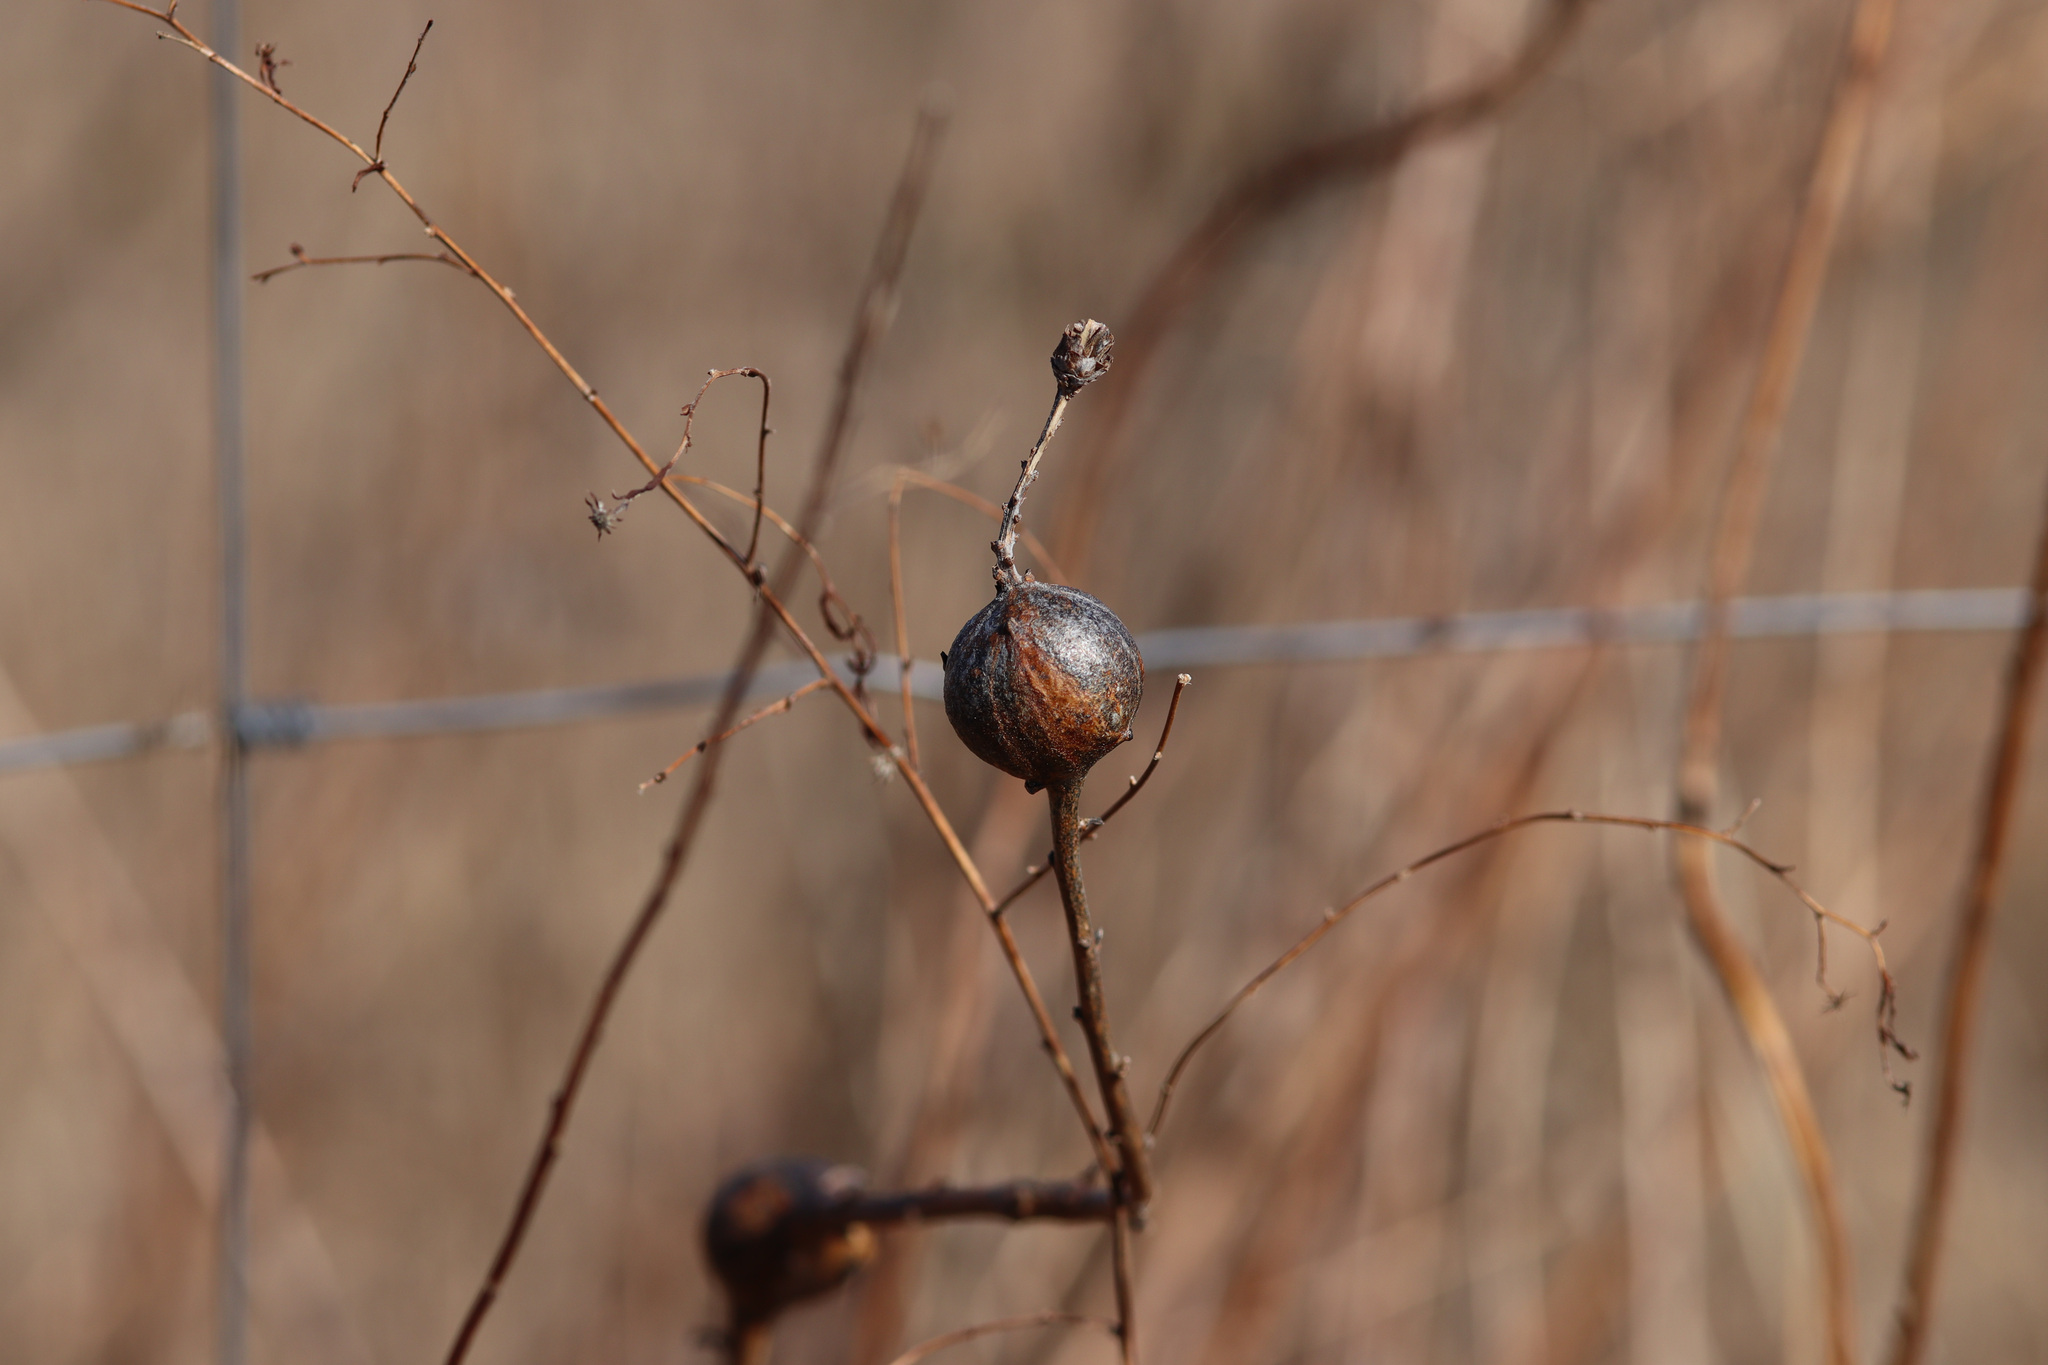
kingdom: Animalia
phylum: Arthropoda
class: Insecta
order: Diptera
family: Tephritidae
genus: Eurosta
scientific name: Eurosta solidaginis
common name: Goldenrod gall fly
